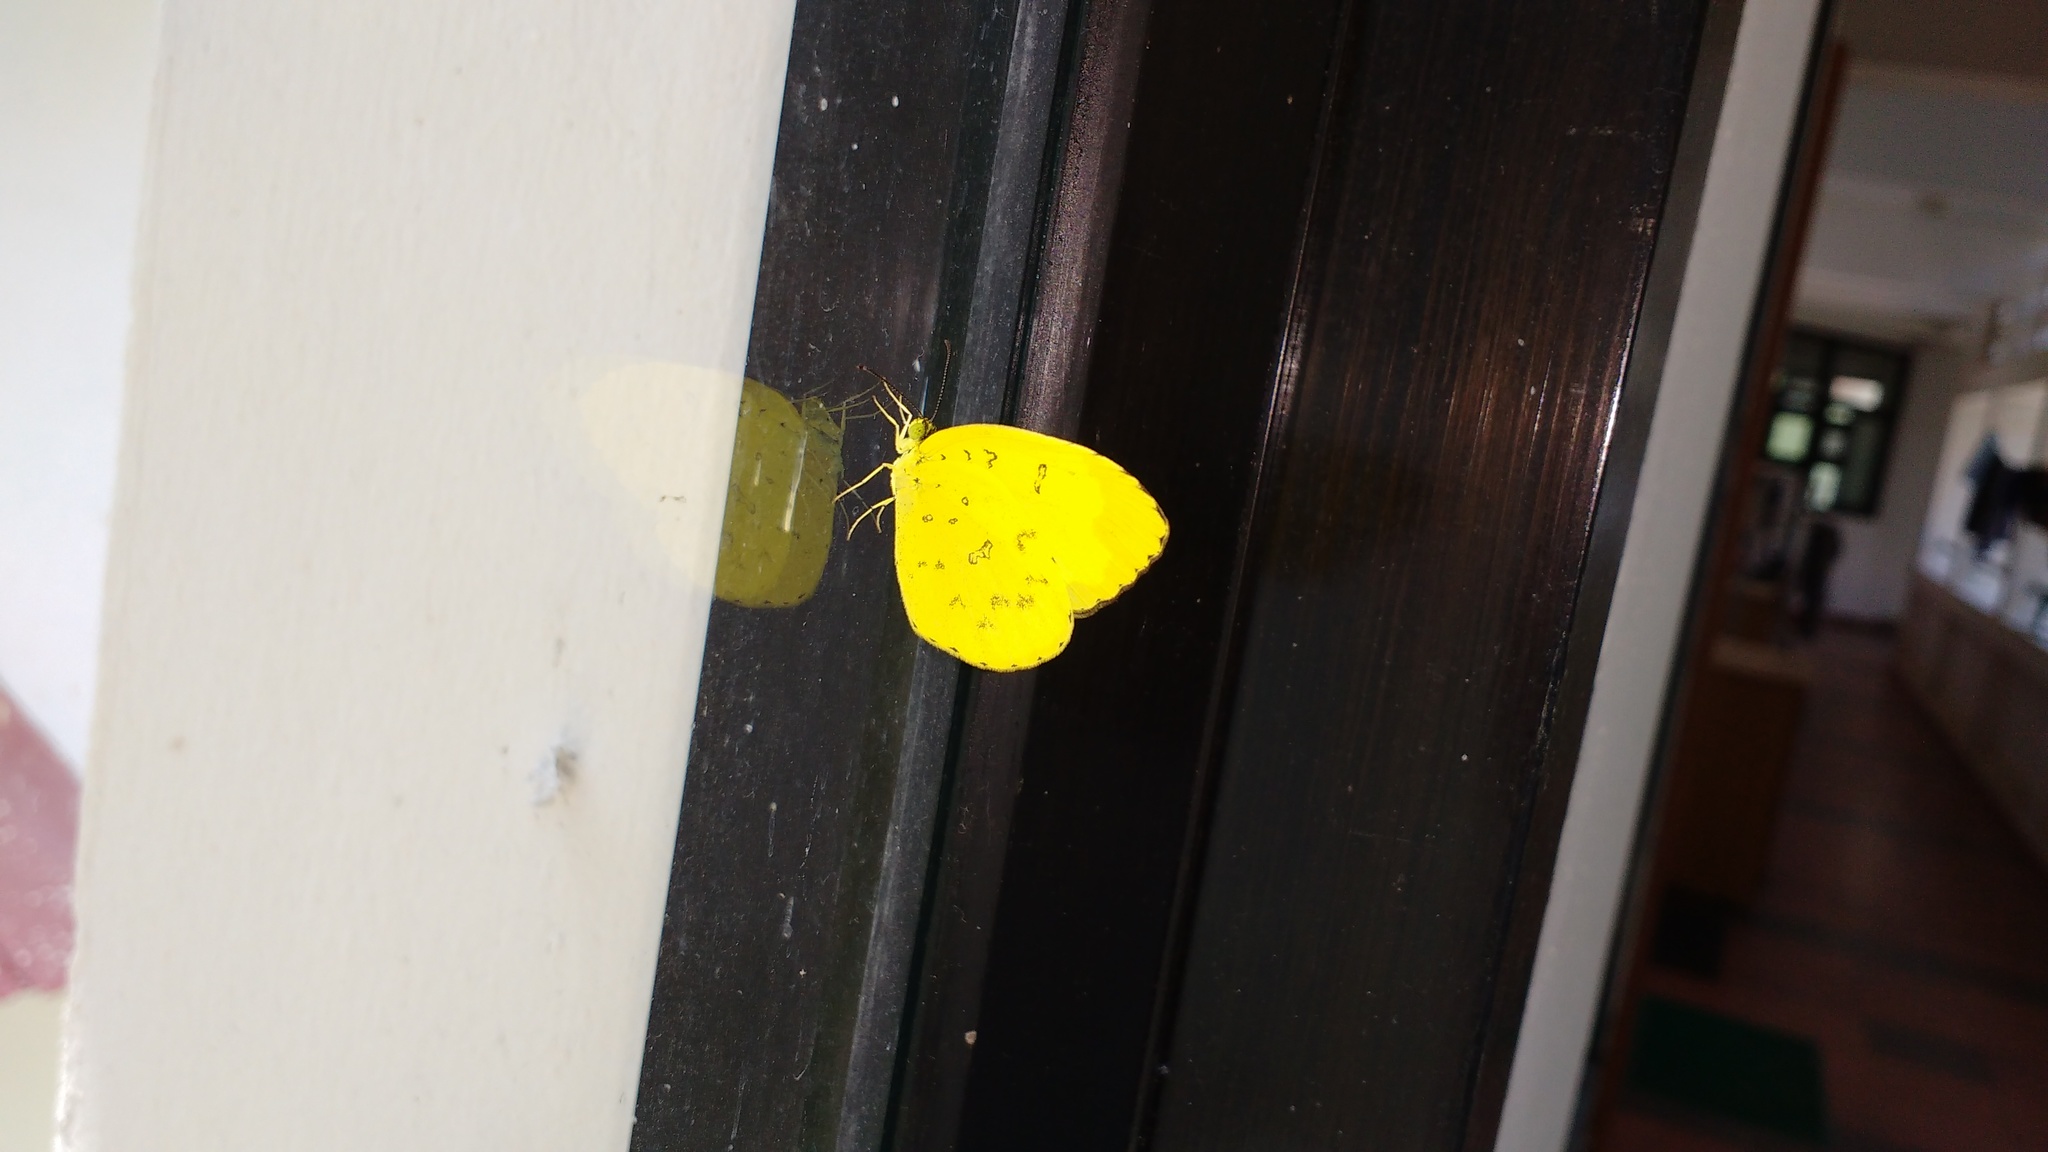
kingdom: Animalia
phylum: Arthropoda
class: Insecta
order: Lepidoptera
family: Pieridae
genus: Eurema
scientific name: Eurema blanda
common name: Three-spot grass yellow
